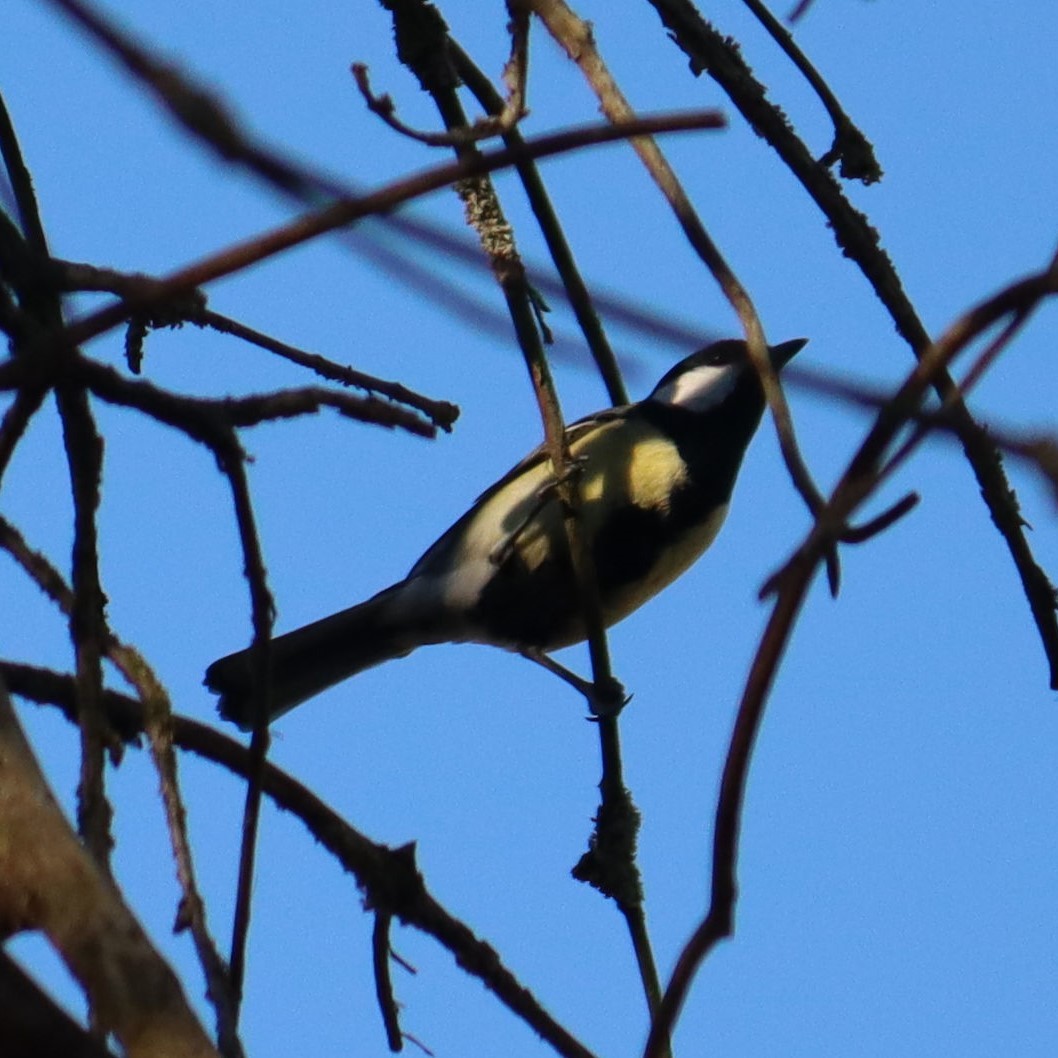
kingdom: Animalia
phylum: Chordata
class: Aves
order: Passeriformes
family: Paridae
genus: Parus
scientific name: Parus major
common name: Great tit
